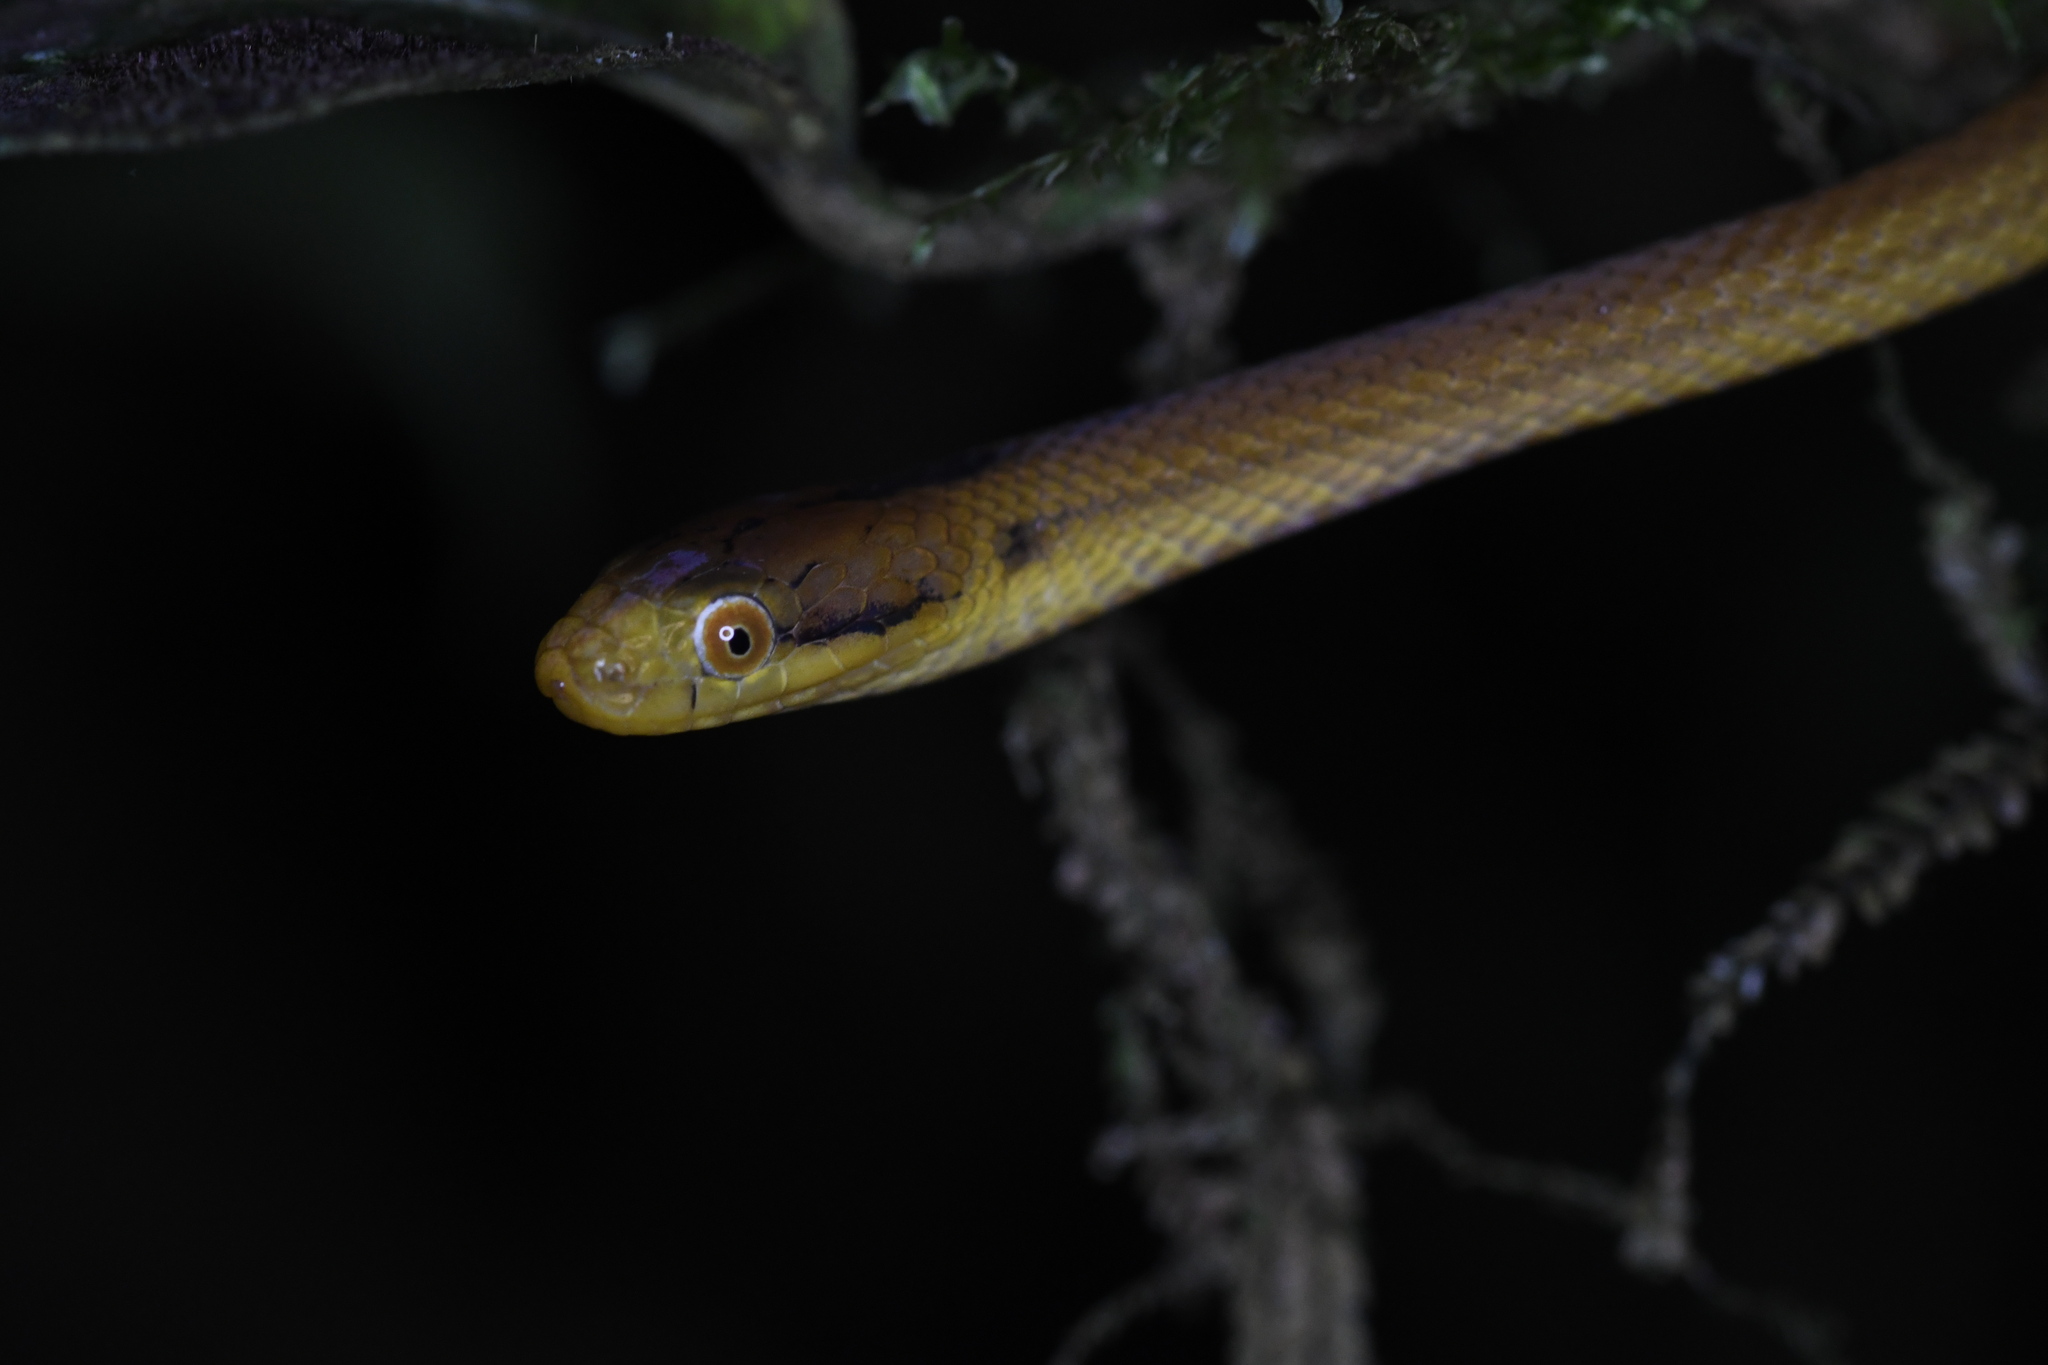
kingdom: Animalia
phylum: Chordata
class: Squamata
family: Pseudoxyrhophiidae
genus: Compsophis
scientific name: Compsophis laphystius
